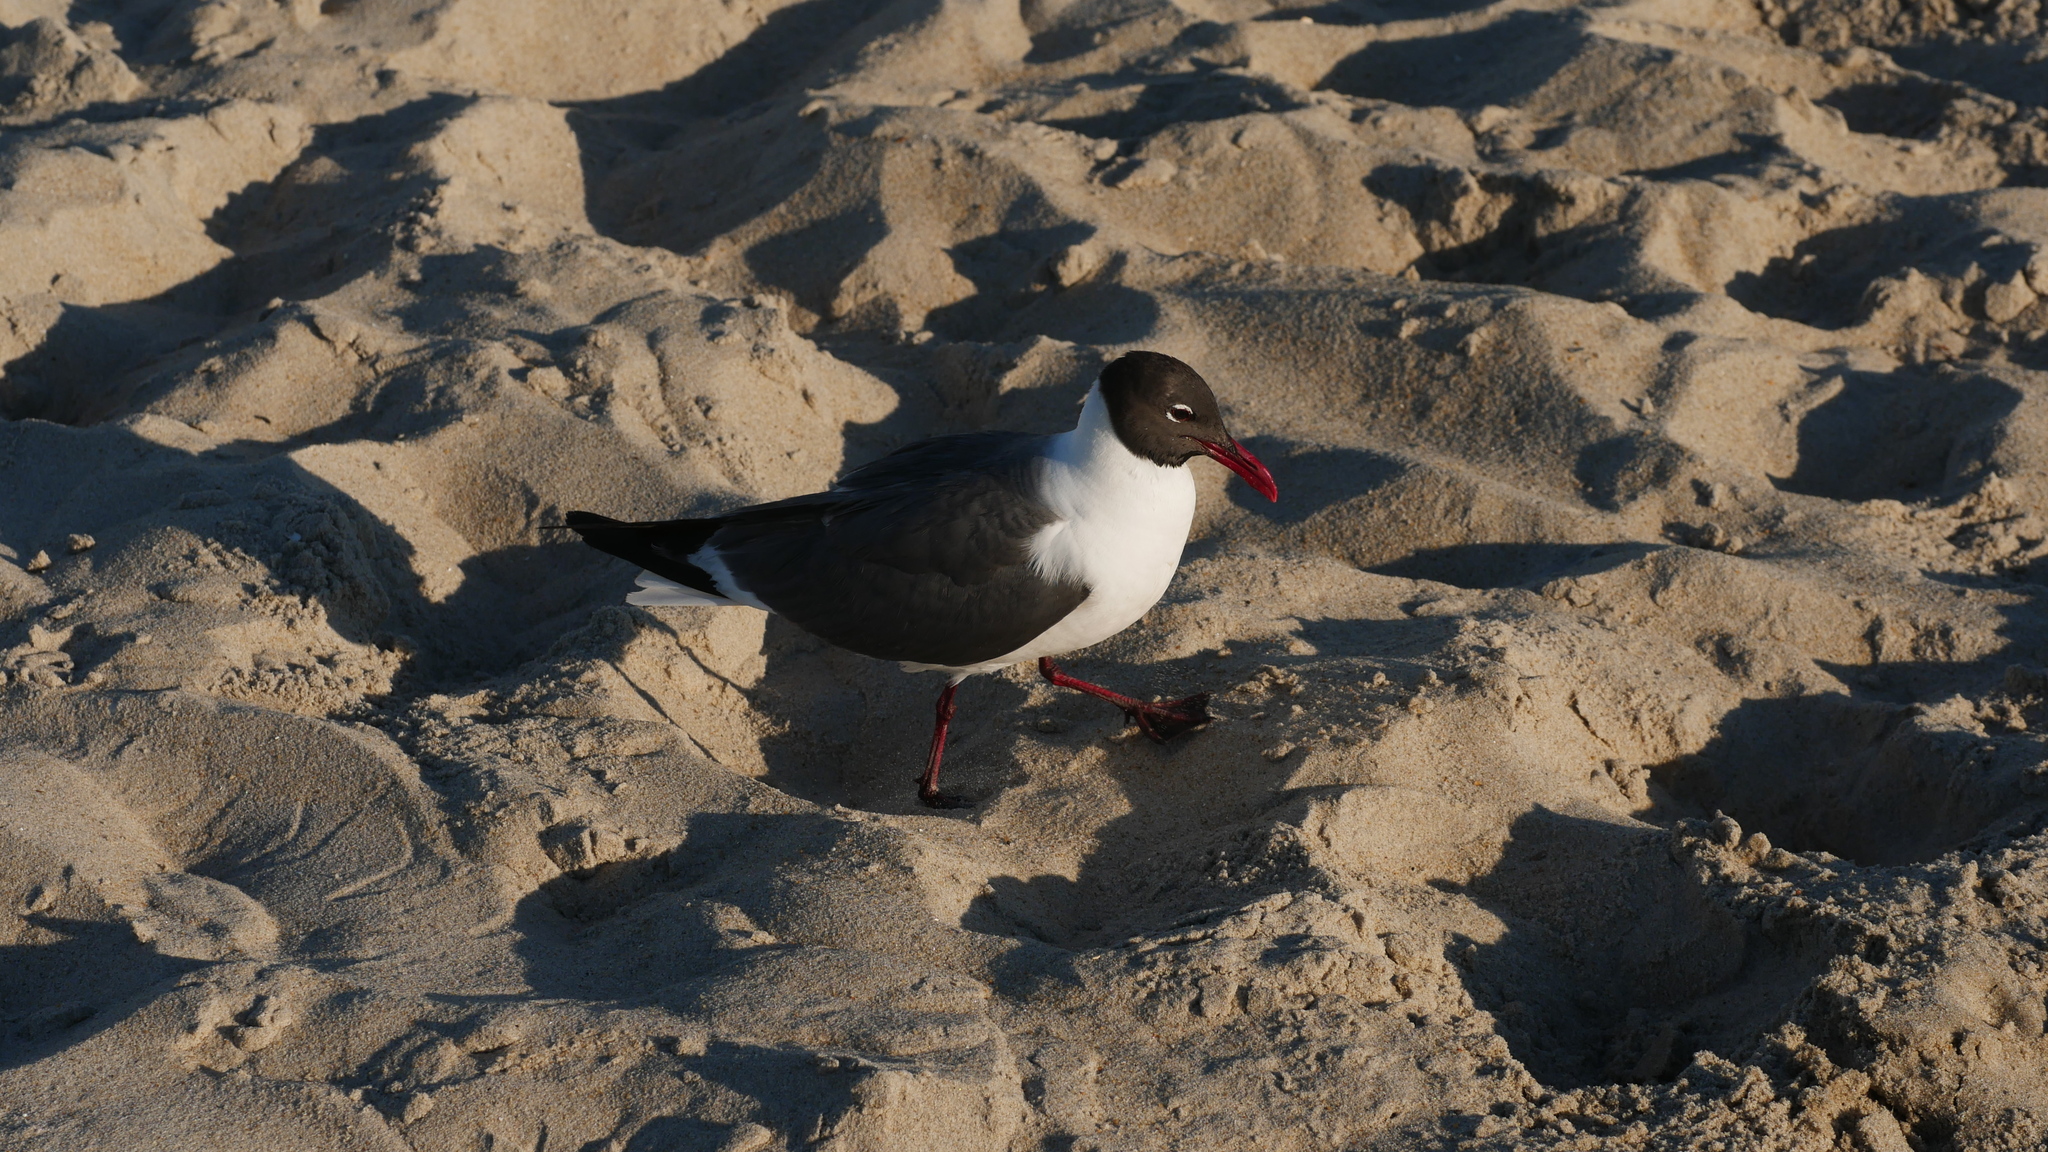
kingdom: Animalia
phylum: Chordata
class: Aves
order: Charadriiformes
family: Laridae
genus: Leucophaeus
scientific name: Leucophaeus atricilla
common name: Laughing gull
